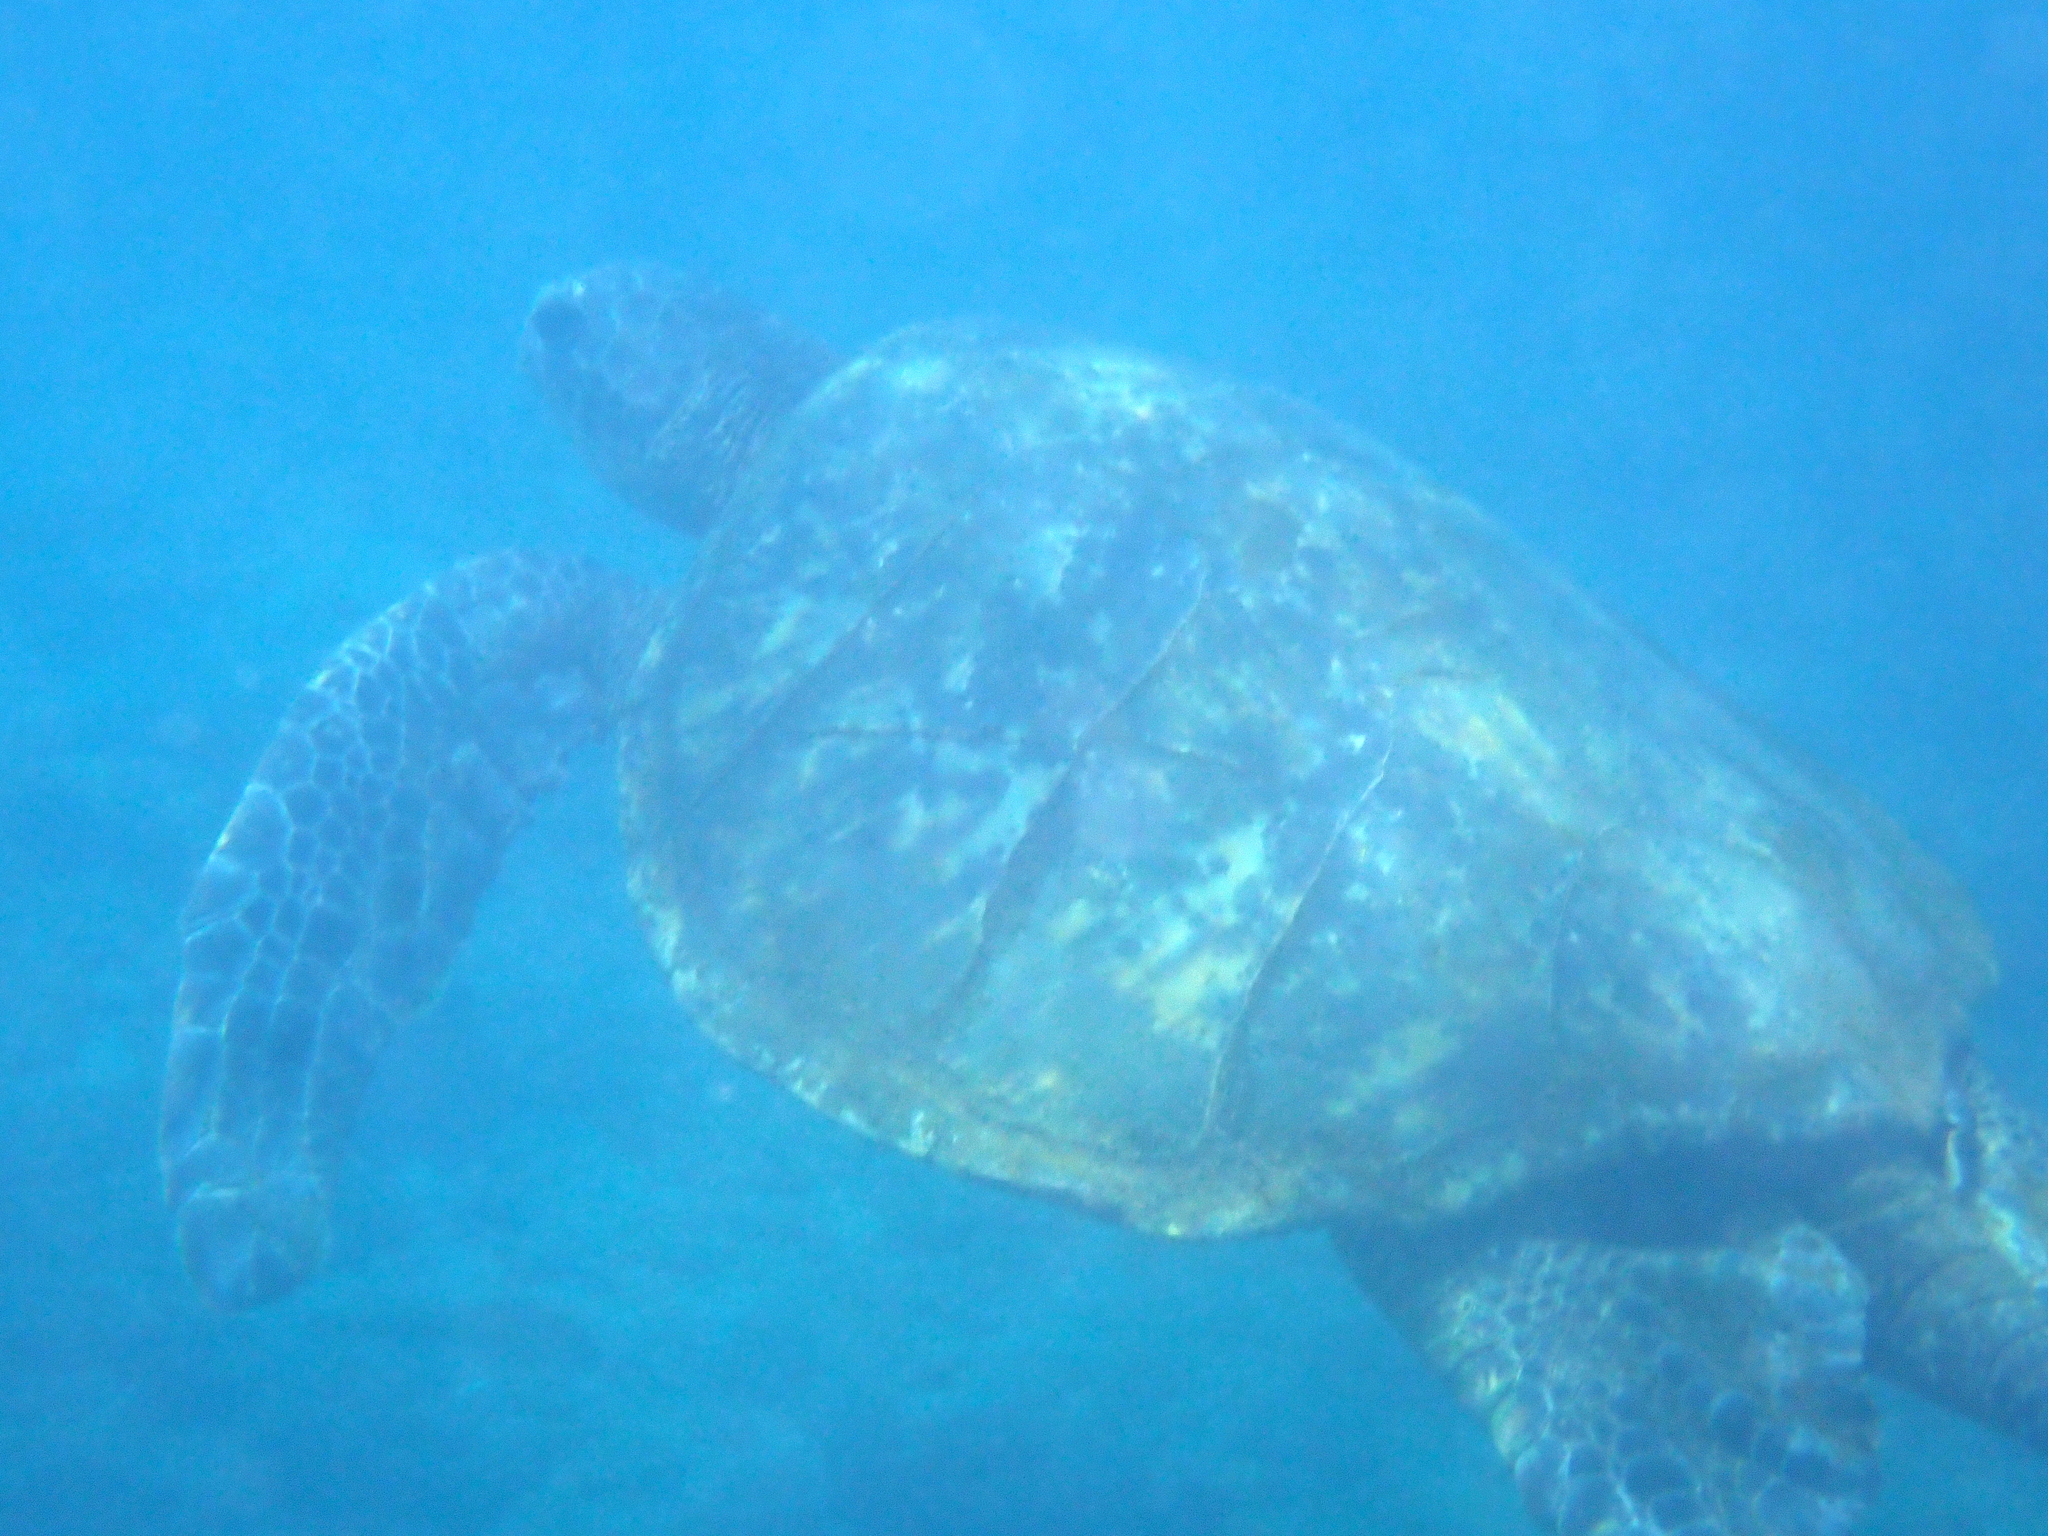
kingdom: Animalia
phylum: Chordata
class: Testudines
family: Cheloniidae
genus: Chelonia
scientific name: Chelonia mydas
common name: Green turtle
